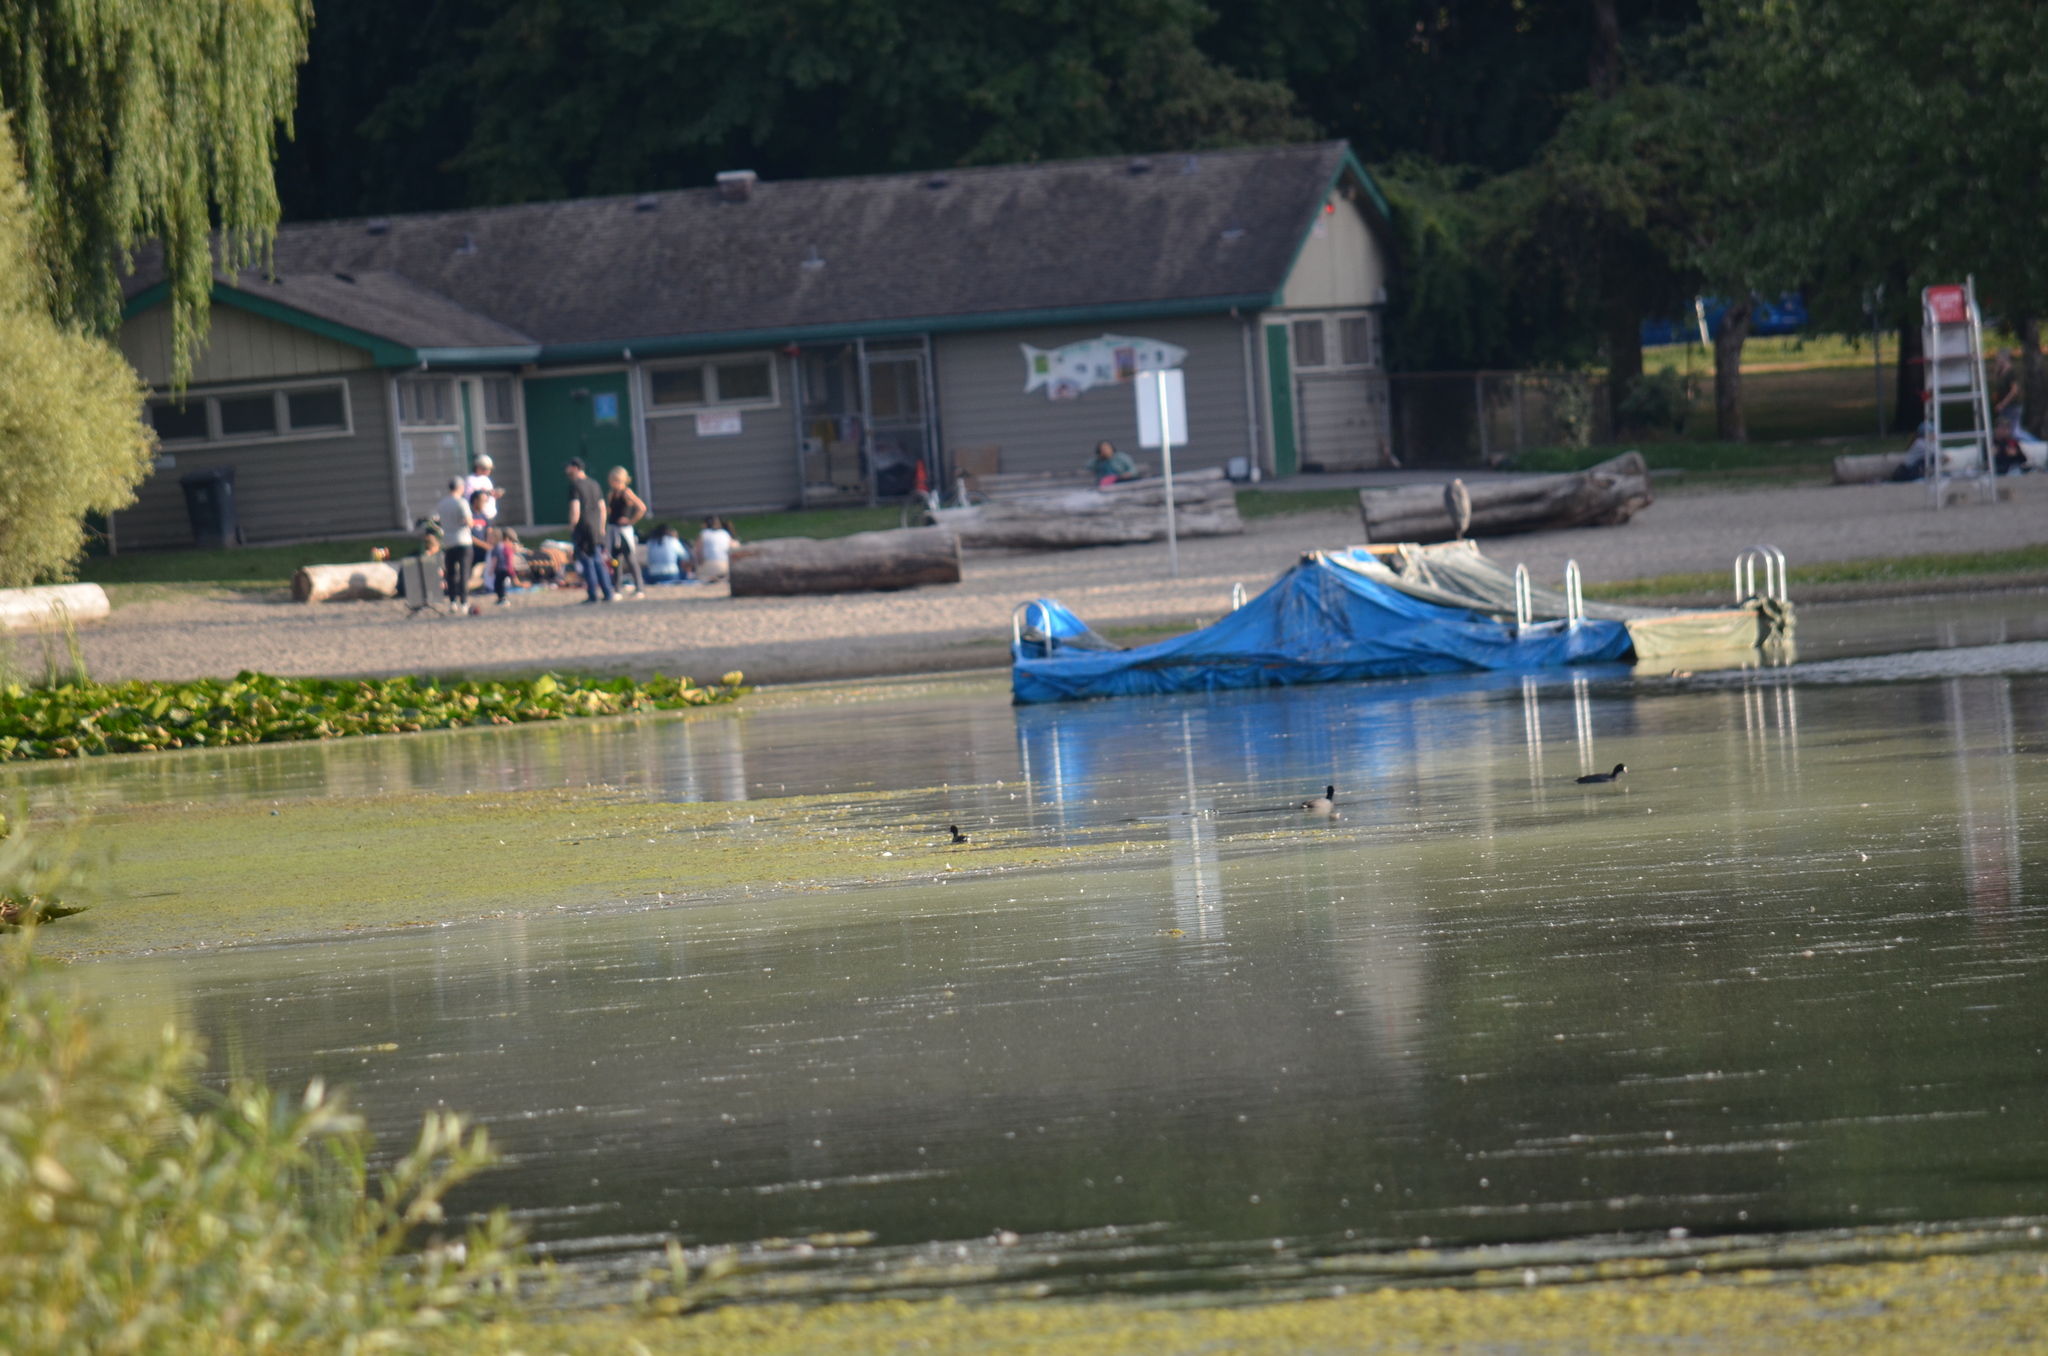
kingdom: Animalia
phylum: Chordata
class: Aves
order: Gruiformes
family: Rallidae
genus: Fulica
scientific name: Fulica americana
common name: American coot
